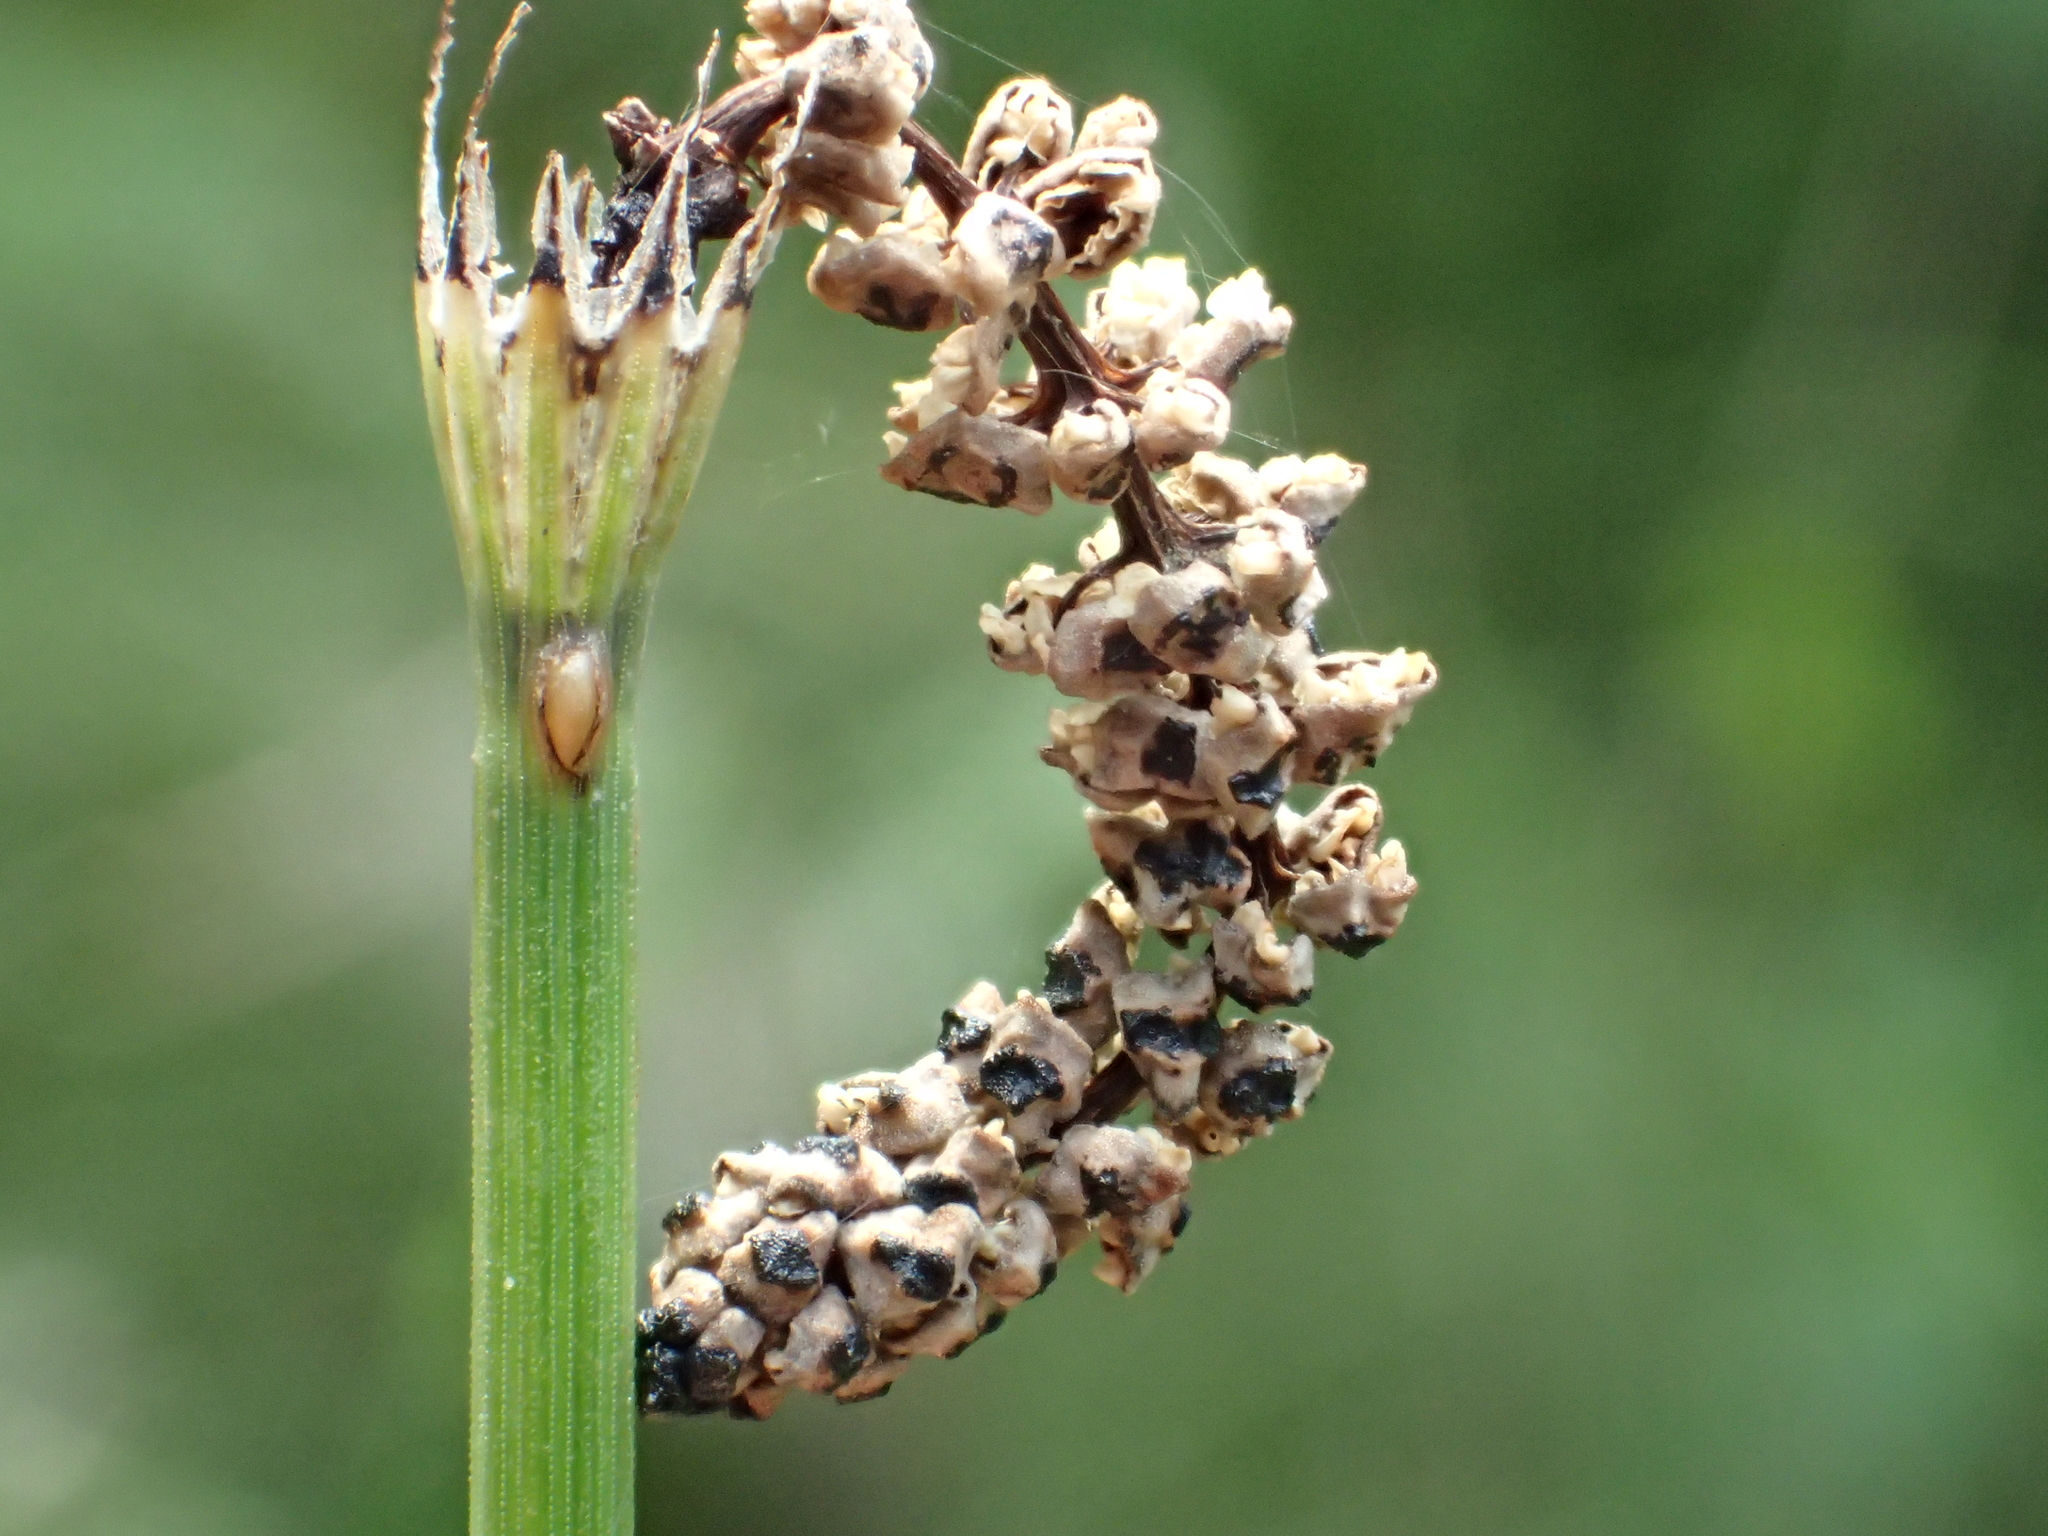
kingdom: Plantae
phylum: Tracheophyta
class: Polypodiopsida
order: Equisetales
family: Equisetaceae
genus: Equisetum
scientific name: Equisetum ramosissimum
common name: Branched horsetail
